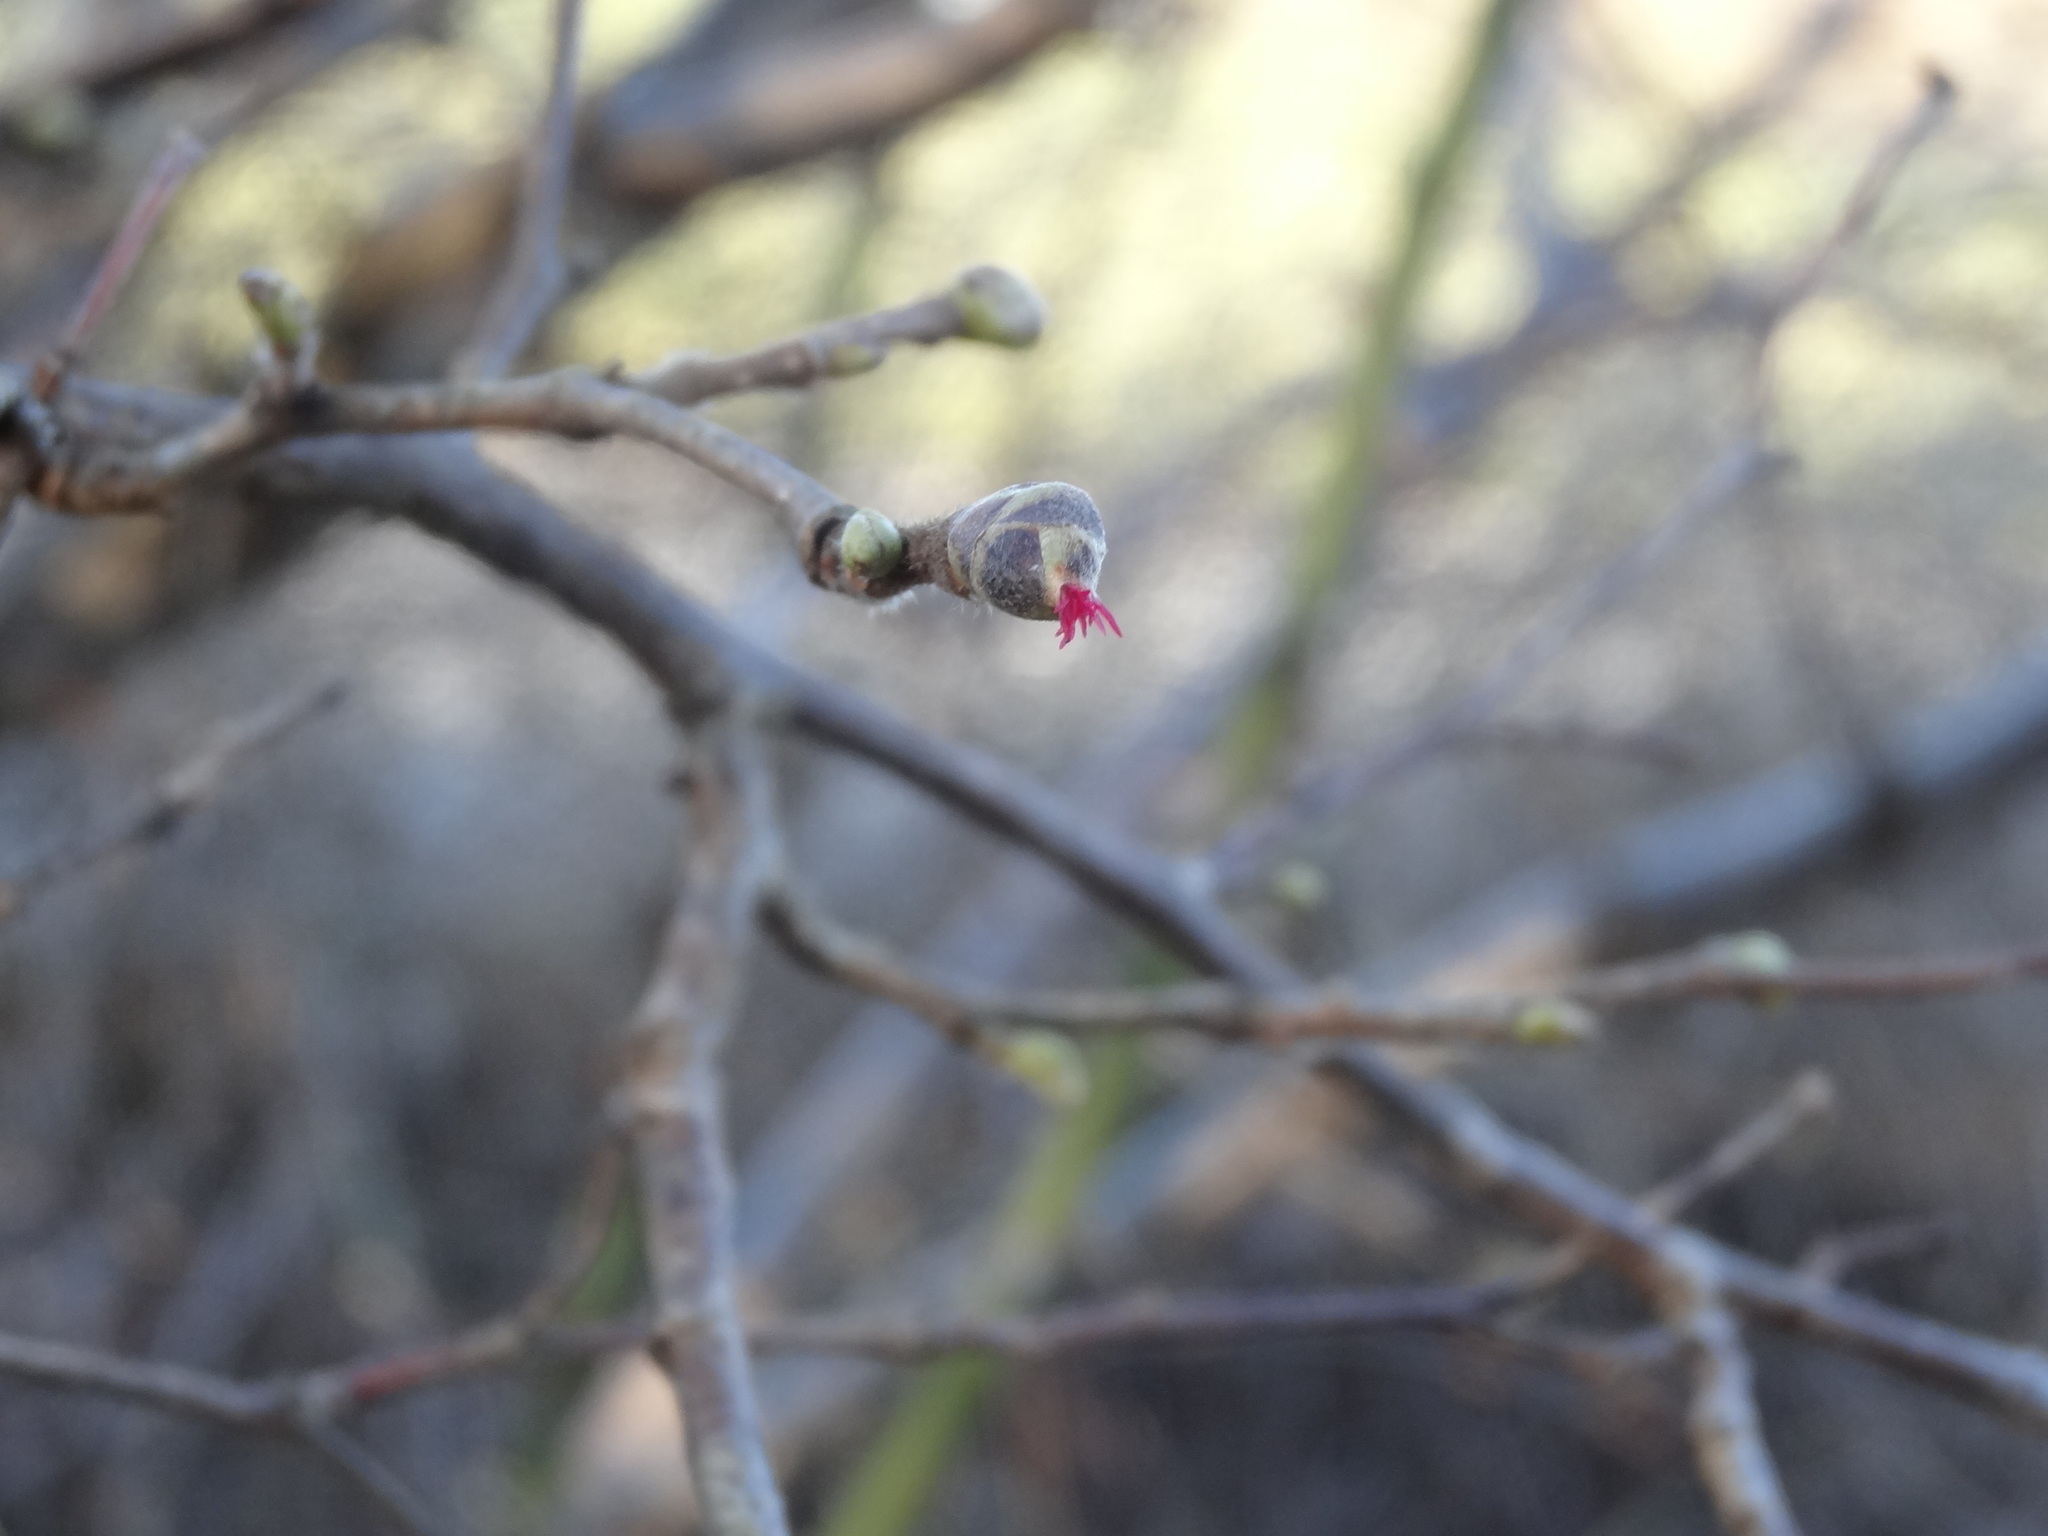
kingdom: Plantae
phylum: Tracheophyta
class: Magnoliopsida
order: Fagales
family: Betulaceae
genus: Corylus
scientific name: Corylus avellana
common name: European hazel
